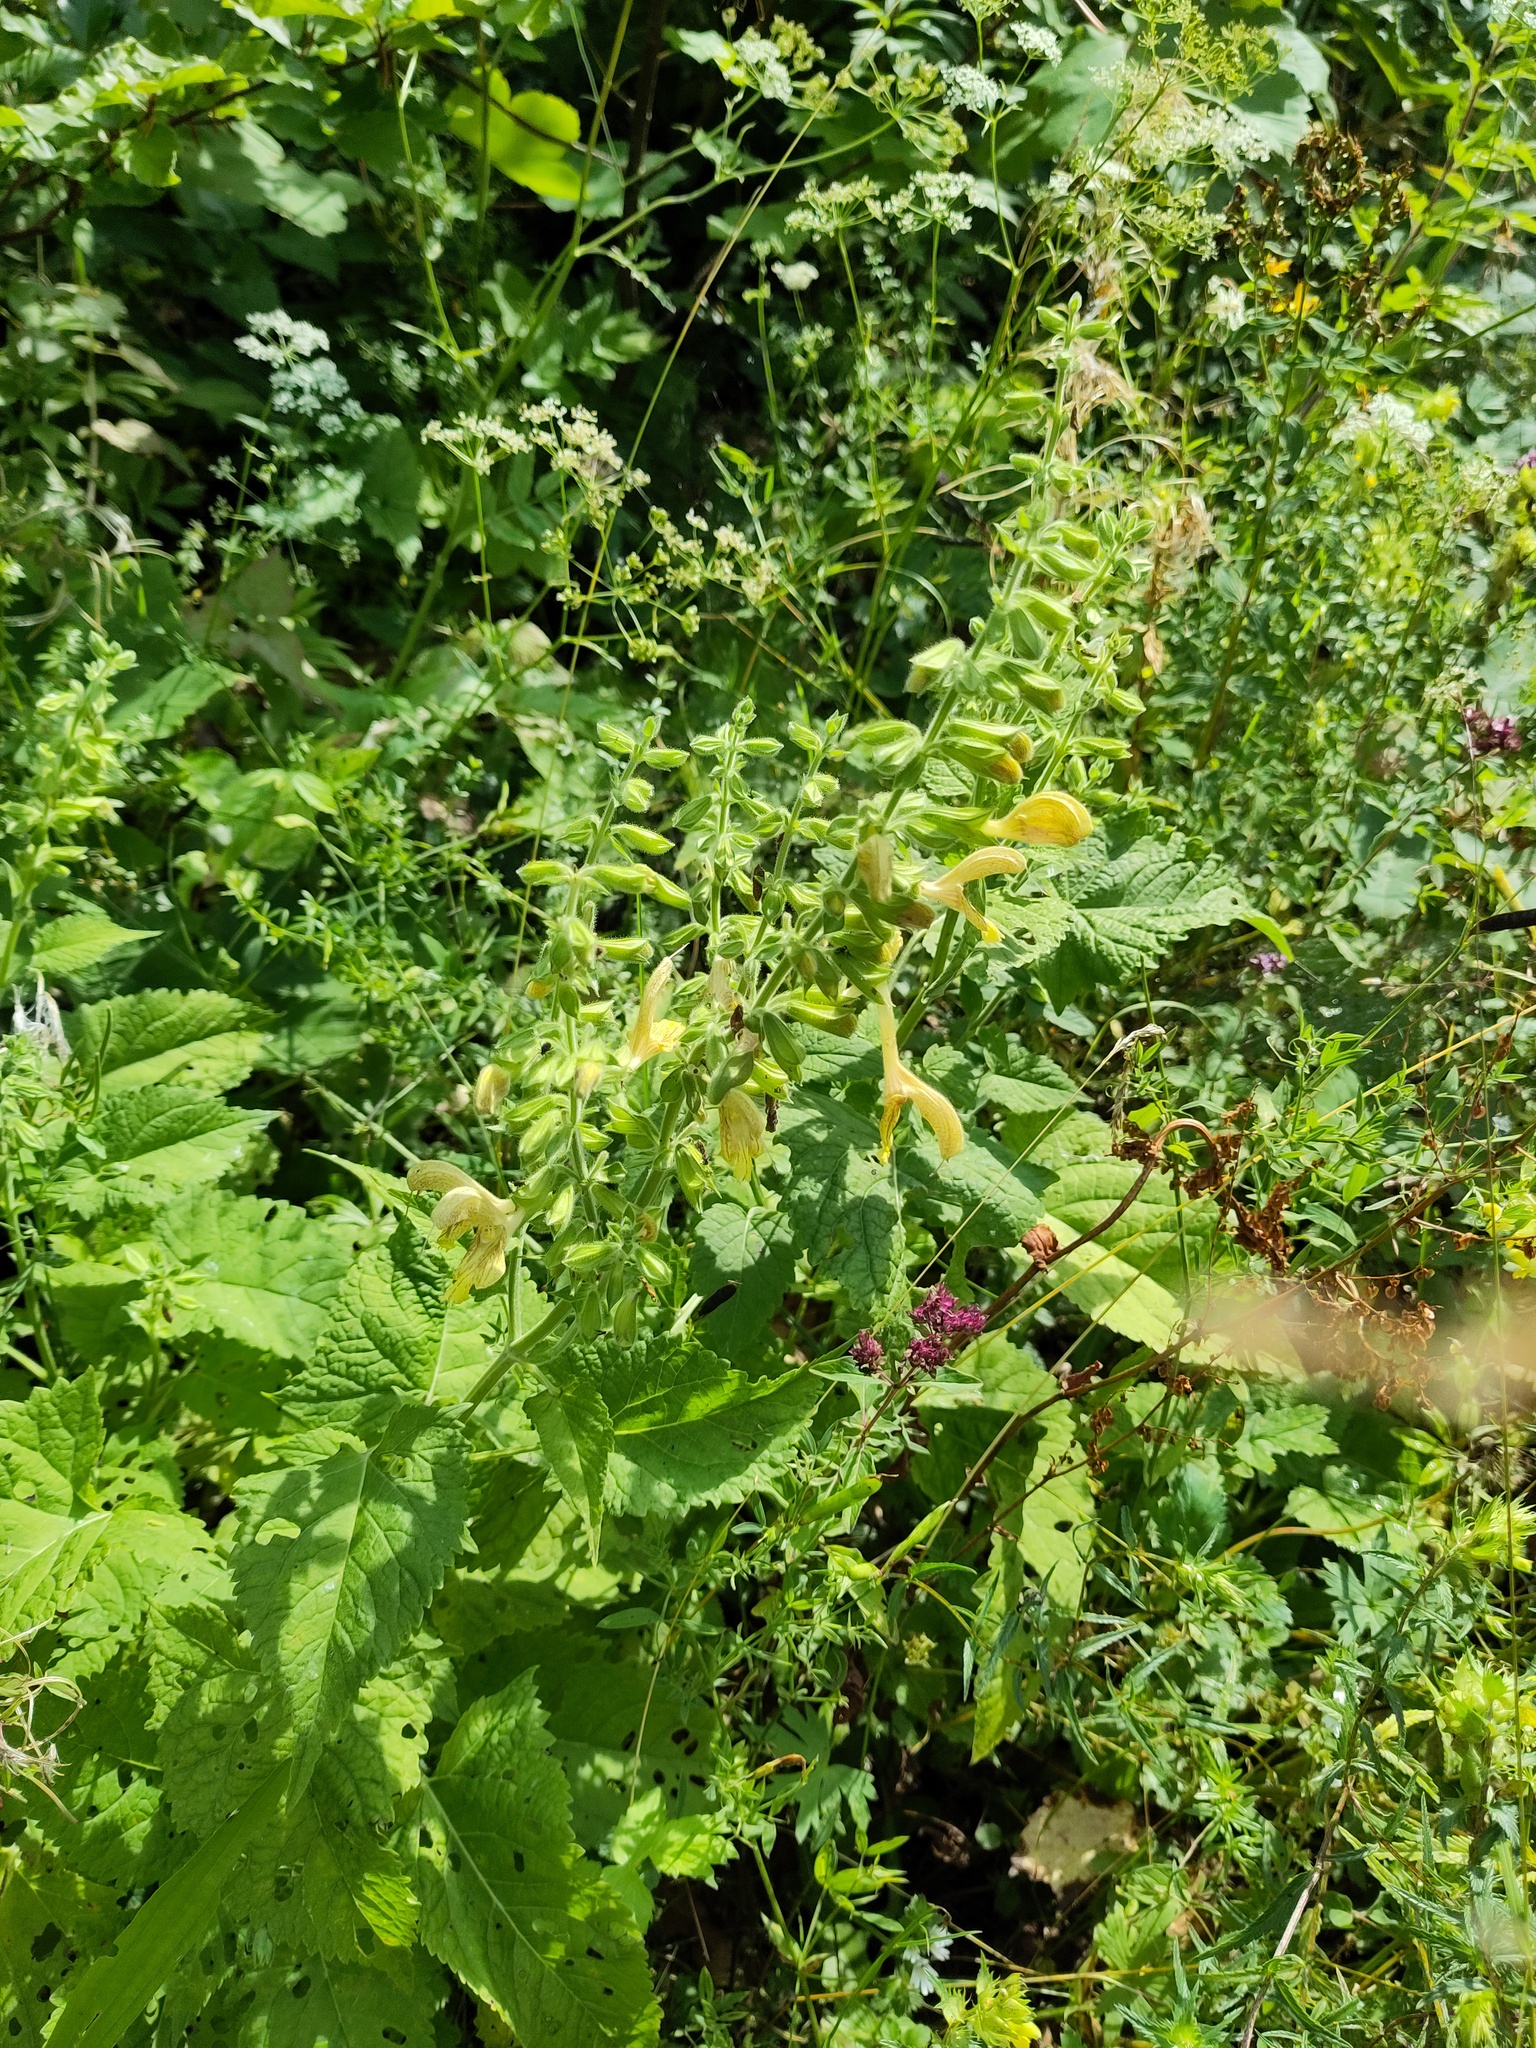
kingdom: Plantae
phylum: Tracheophyta
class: Magnoliopsida
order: Lamiales
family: Lamiaceae
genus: Salvia
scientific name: Salvia glutinosa
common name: Sticky clary
